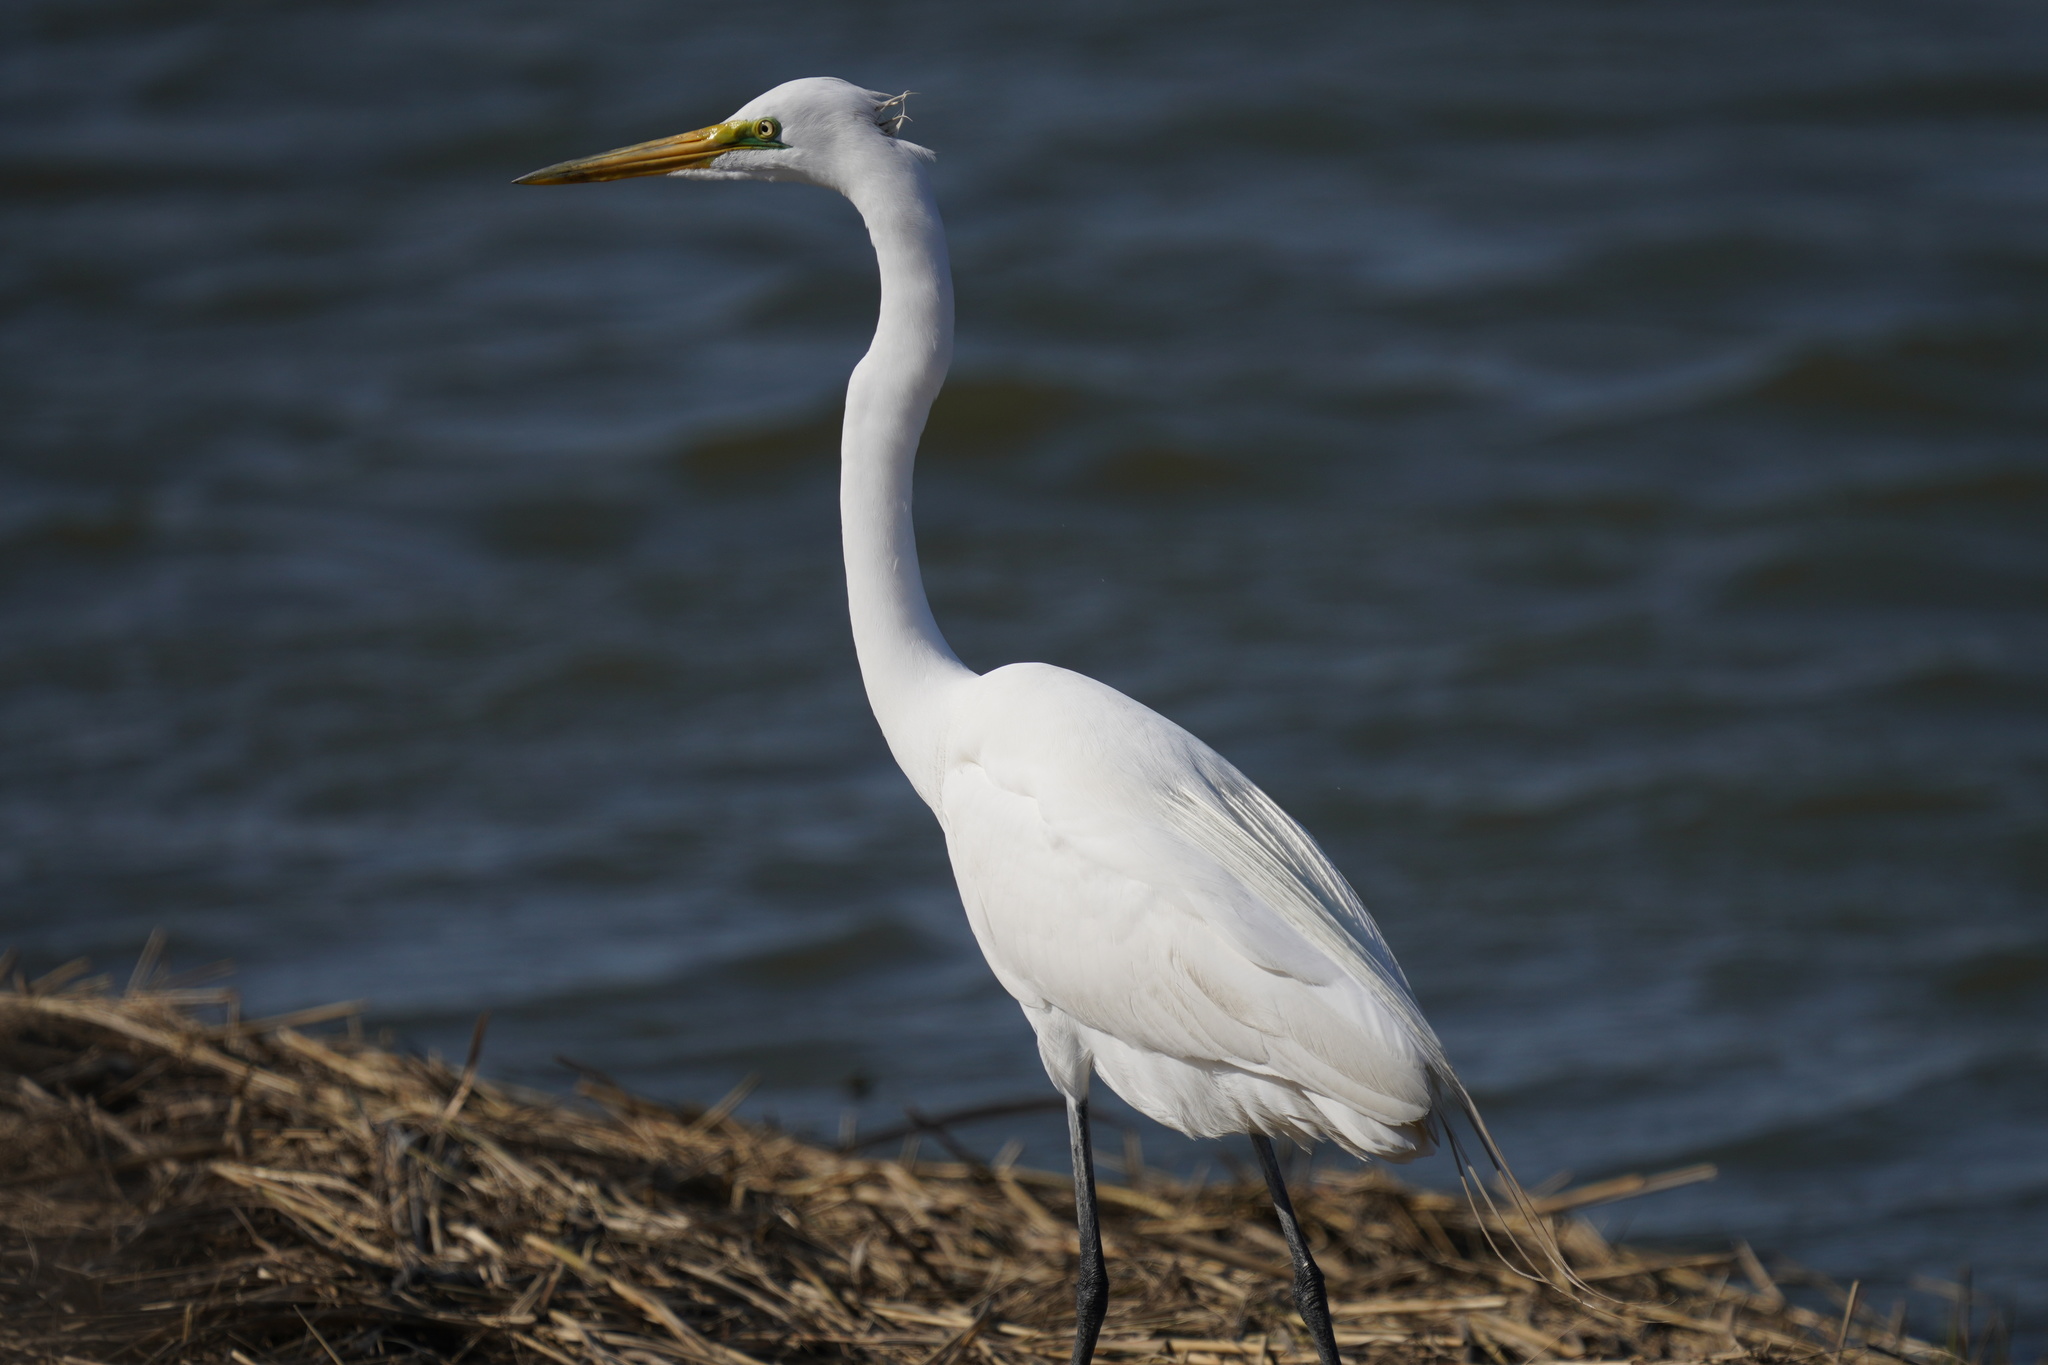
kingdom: Animalia
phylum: Chordata
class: Aves
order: Pelecaniformes
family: Ardeidae
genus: Ardea
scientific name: Ardea alba
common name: Great egret
